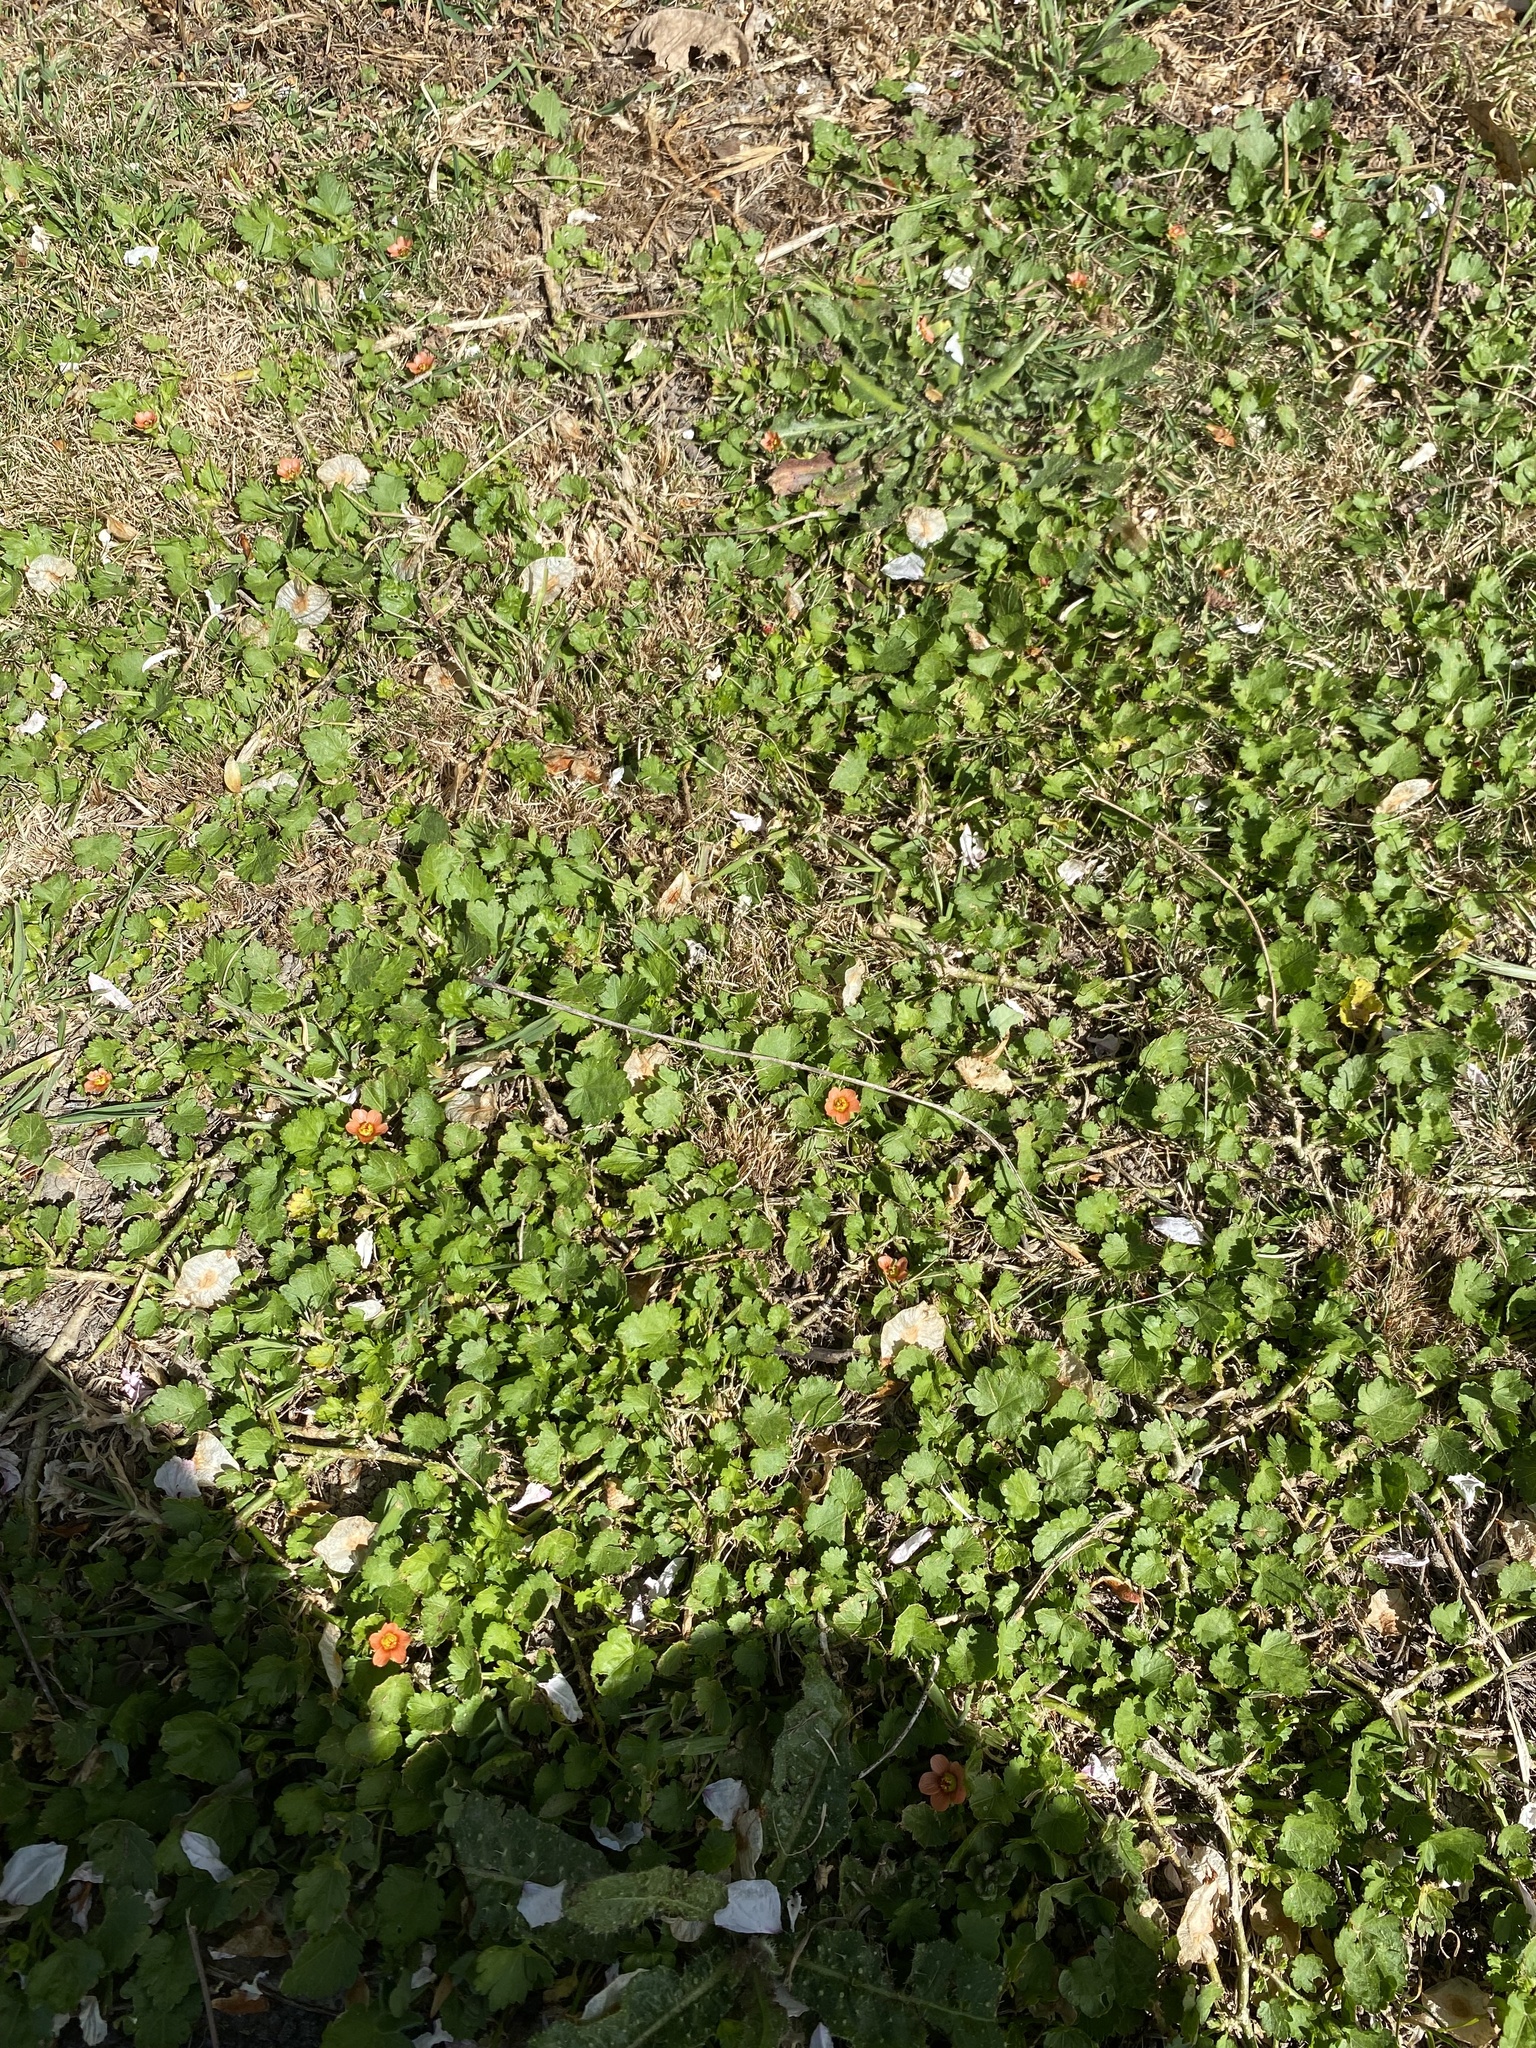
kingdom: Plantae
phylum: Tracheophyta
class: Magnoliopsida
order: Malvales
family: Malvaceae
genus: Modiola
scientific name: Modiola caroliniana
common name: Carolina bristlemallow
